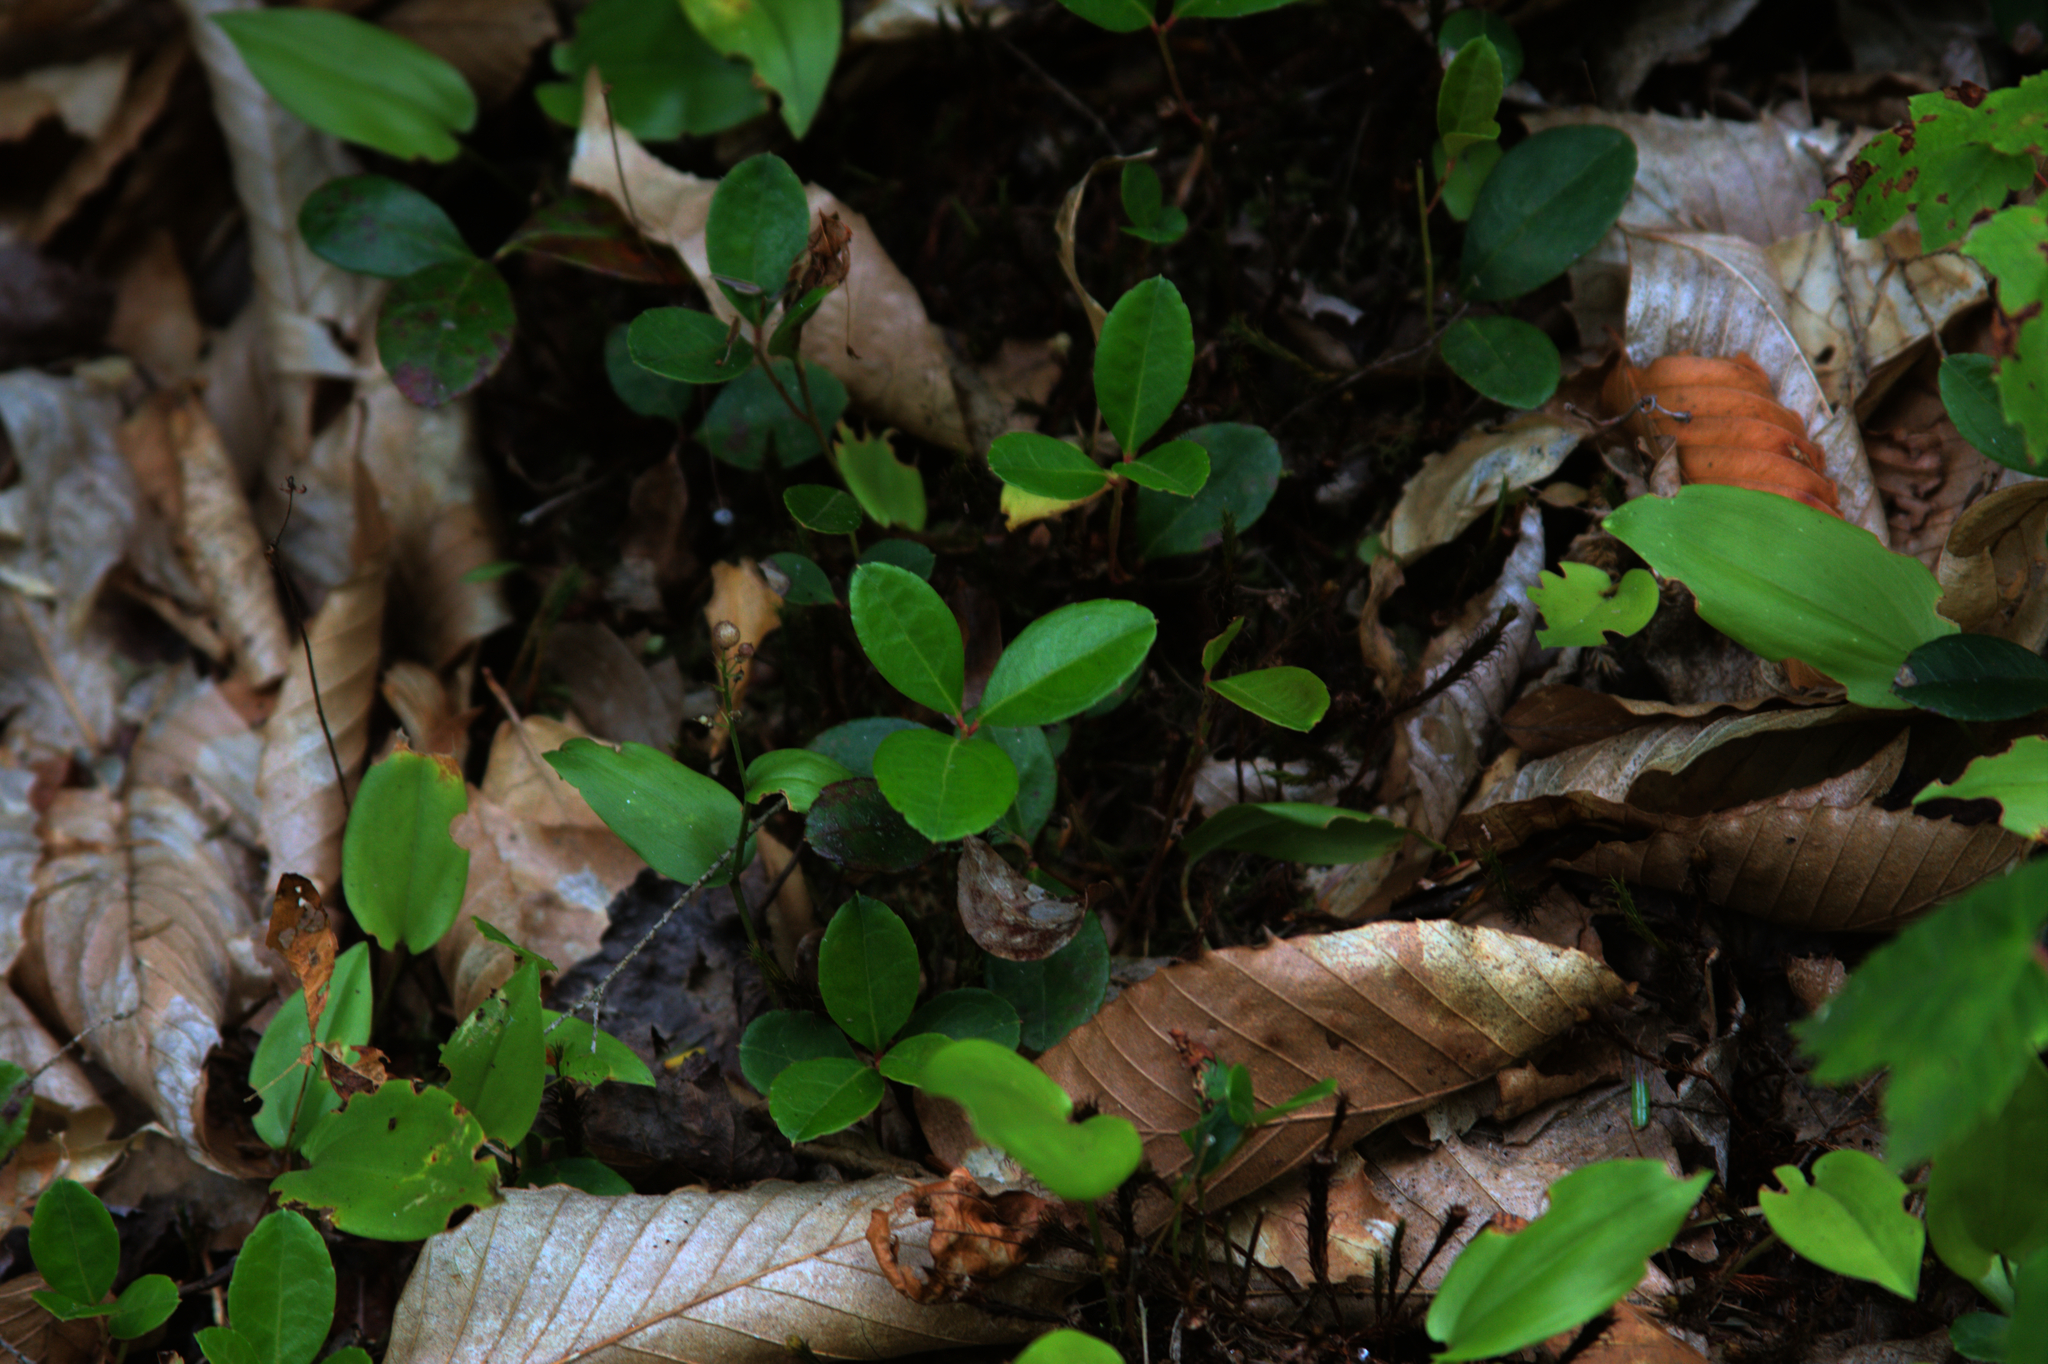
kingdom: Plantae
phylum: Tracheophyta
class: Magnoliopsida
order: Ericales
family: Ericaceae
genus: Gaultheria
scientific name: Gaultheria procumbens
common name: Checkerberry
